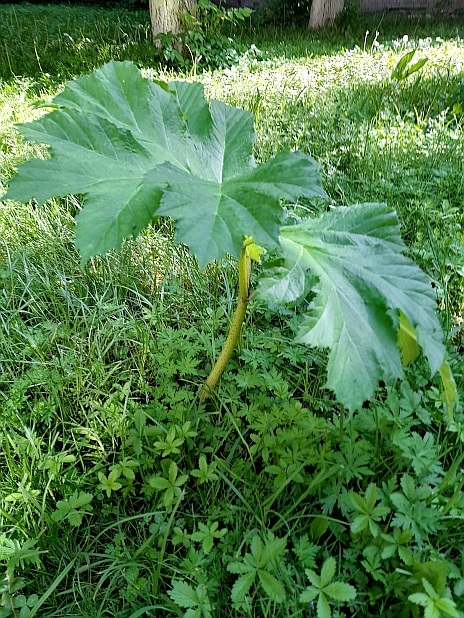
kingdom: Plantae
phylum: Tracheophyta
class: Magnoliopsida
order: Apiales
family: Apiaceae
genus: Heracleum
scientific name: Heracleum sosnowskyi
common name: Sosnowsky's hogweed
